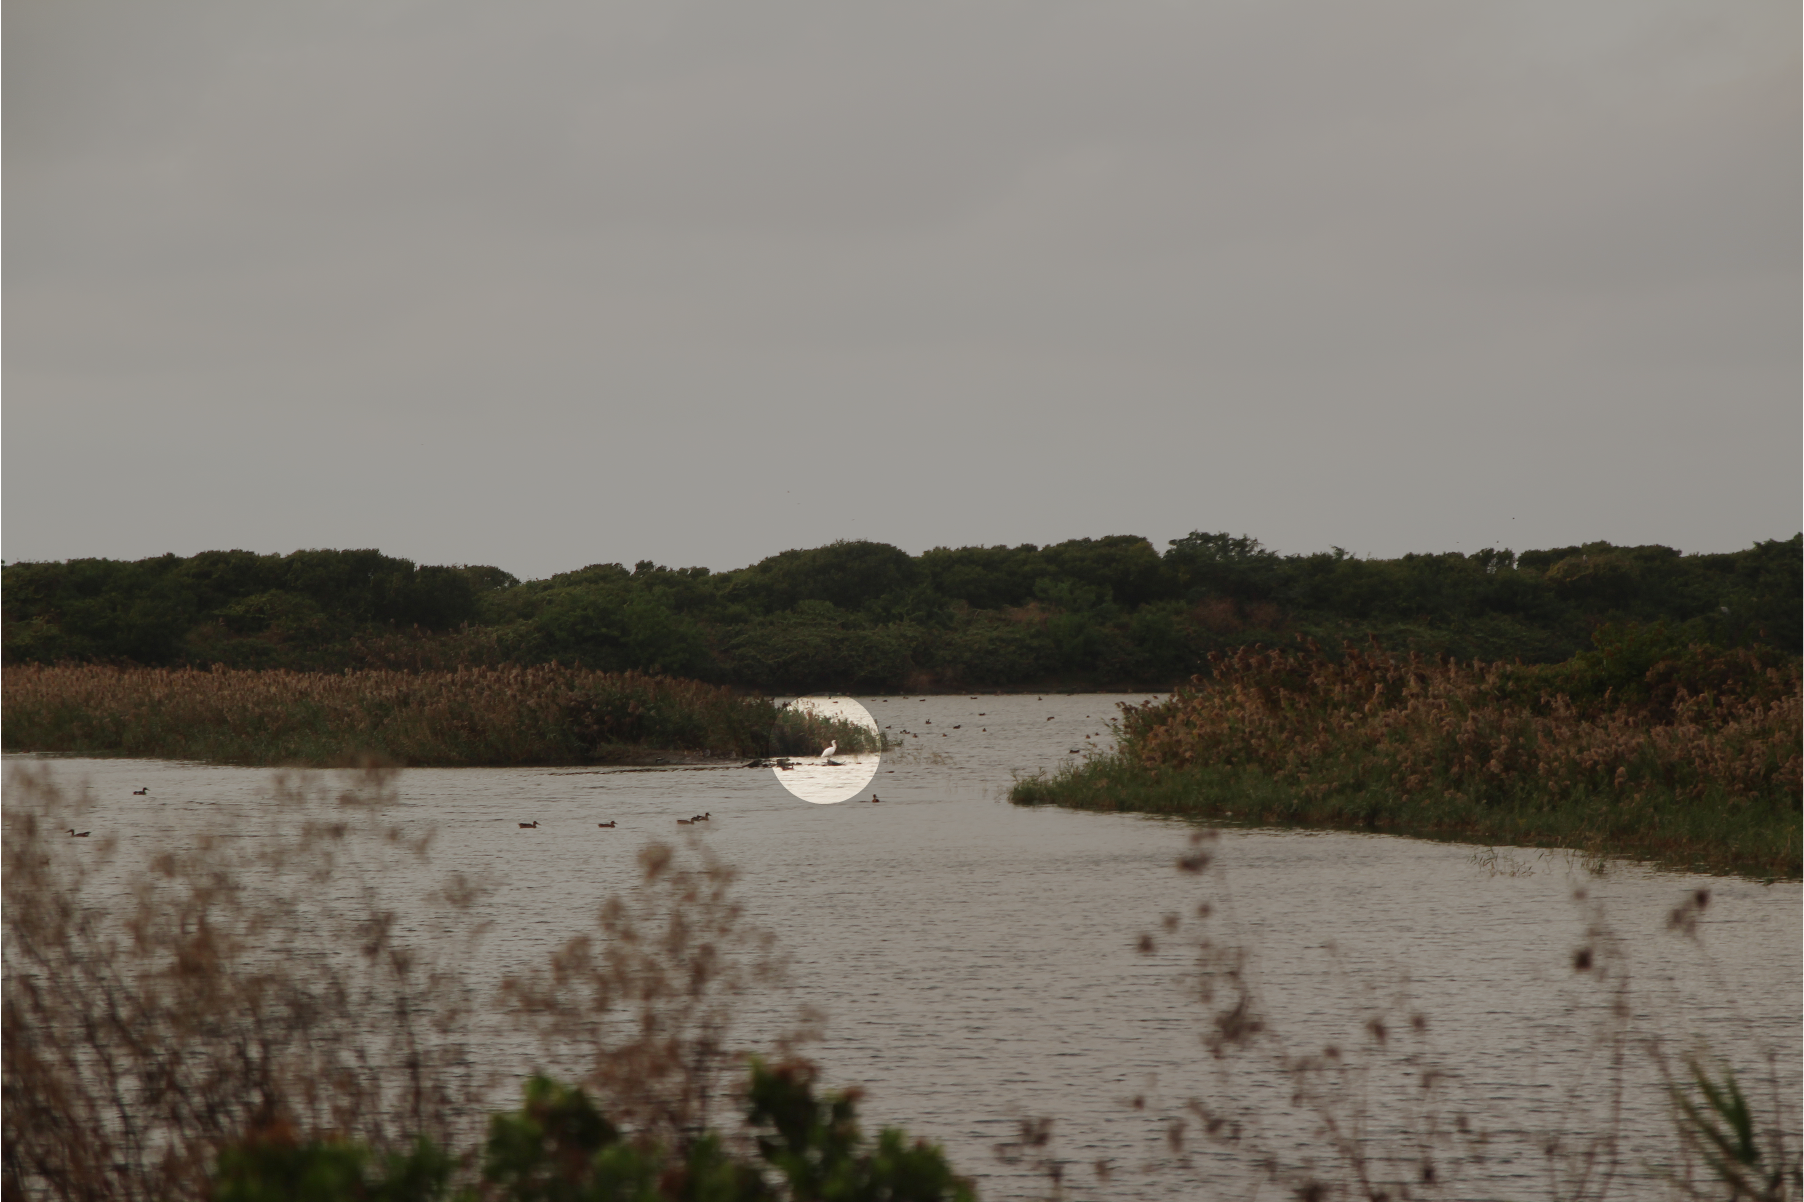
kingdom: Animalia
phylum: Chordata
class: Aves
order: Pelecaniformes
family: Threskiornithidae
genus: Platalea
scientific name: Platalea minor
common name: Black-faced spoonbill
